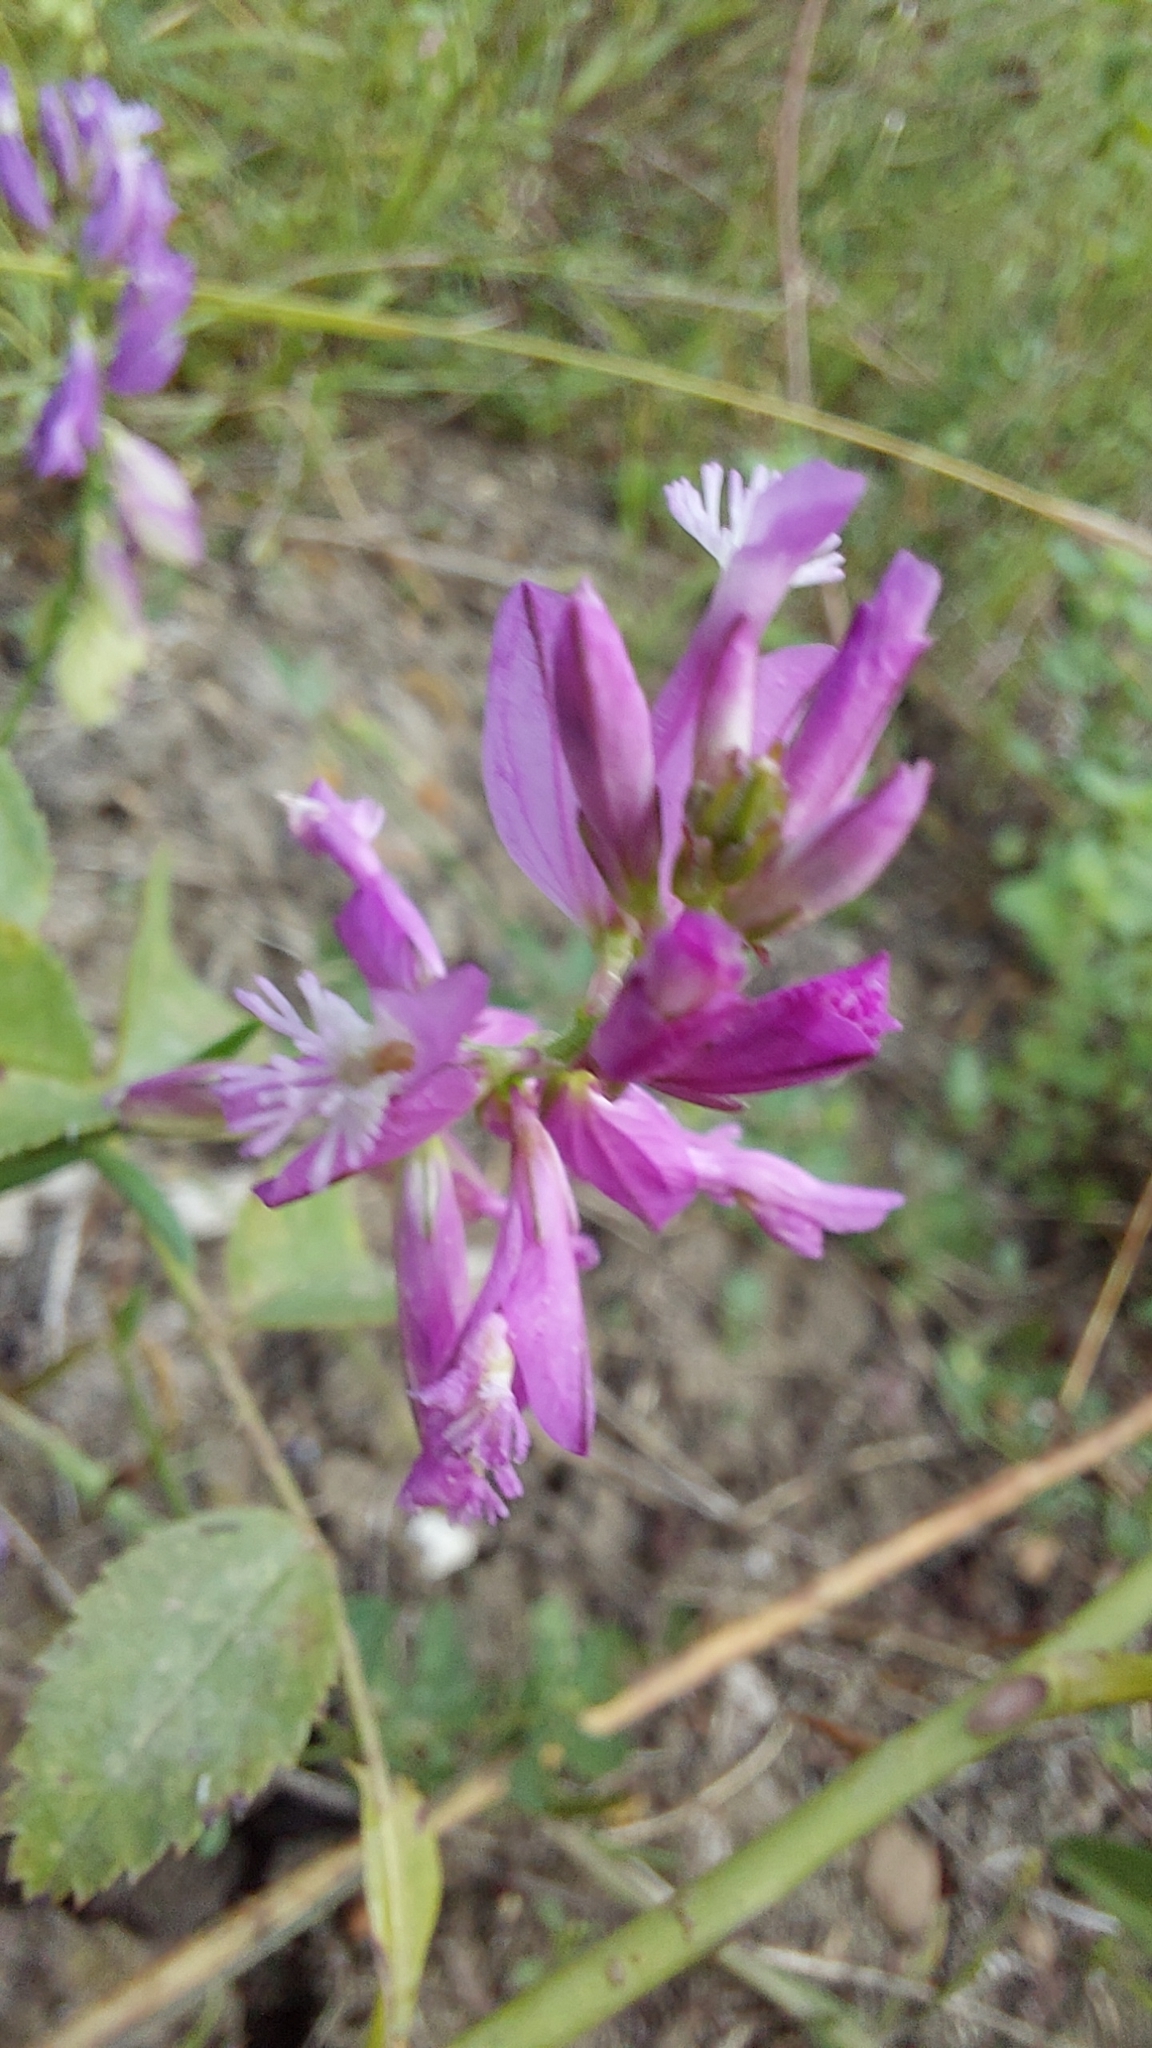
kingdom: Plantae
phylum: Tracheophyta
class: Magnoliopsida
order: Fabales
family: Polygalaceae
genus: Polygala
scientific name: Polygala major
